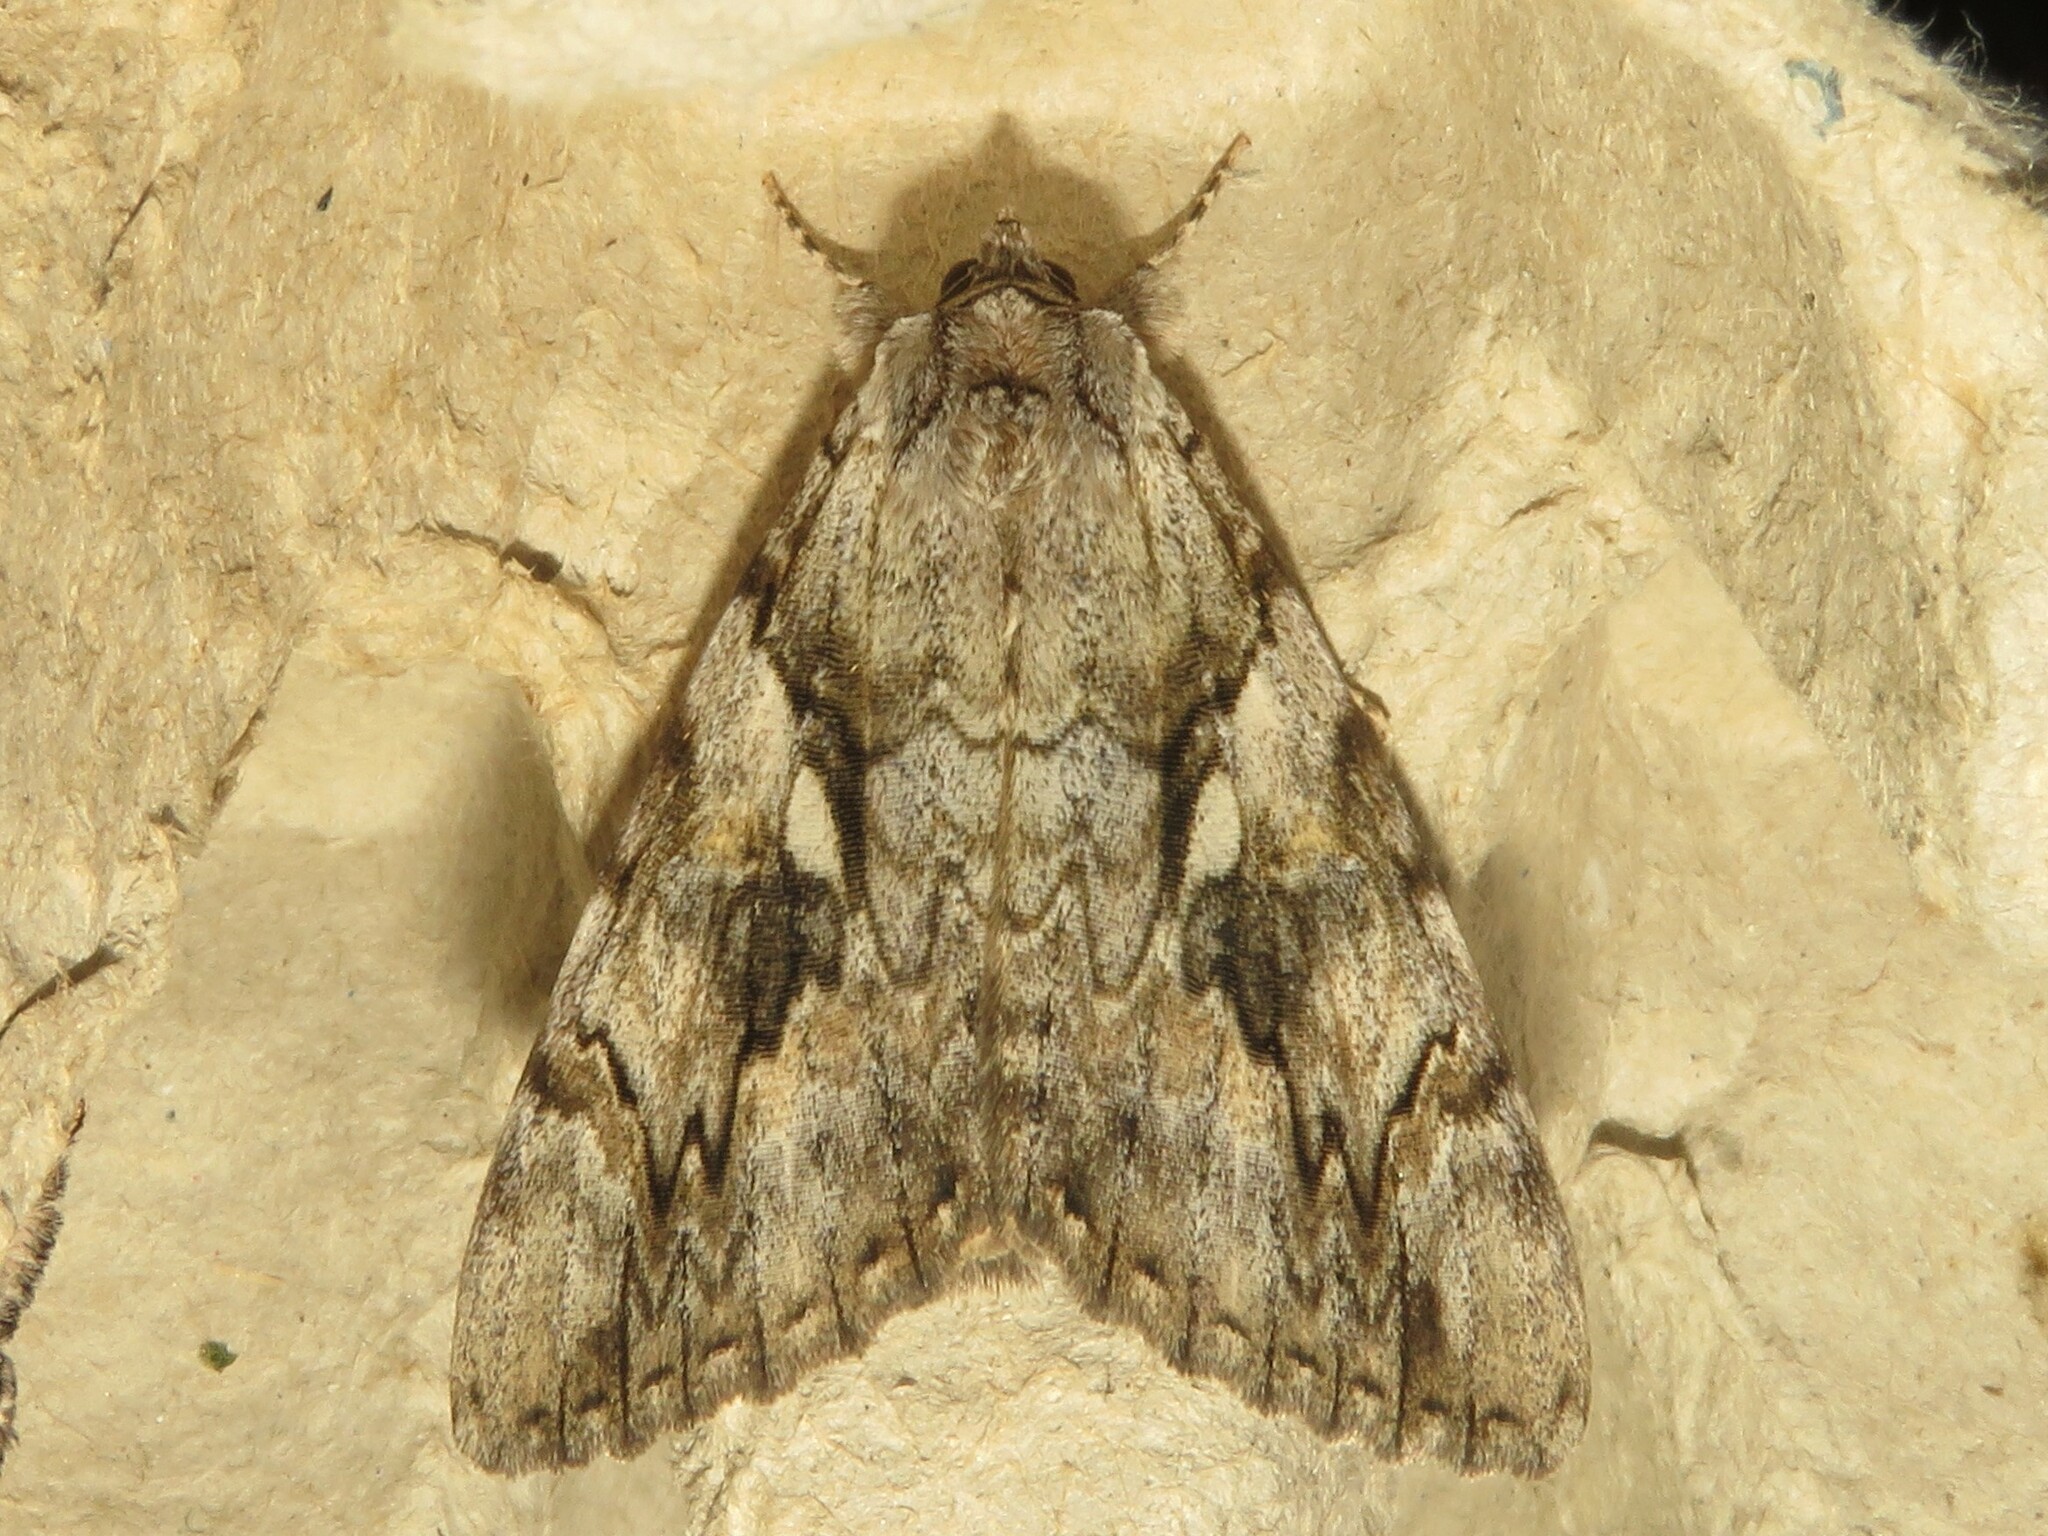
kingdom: Animalia
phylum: Arthropoda
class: Insecta
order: Lepidoptera
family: Erebidae
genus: Catocala
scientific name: Catocala cerogama
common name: Yellow banded underwing
